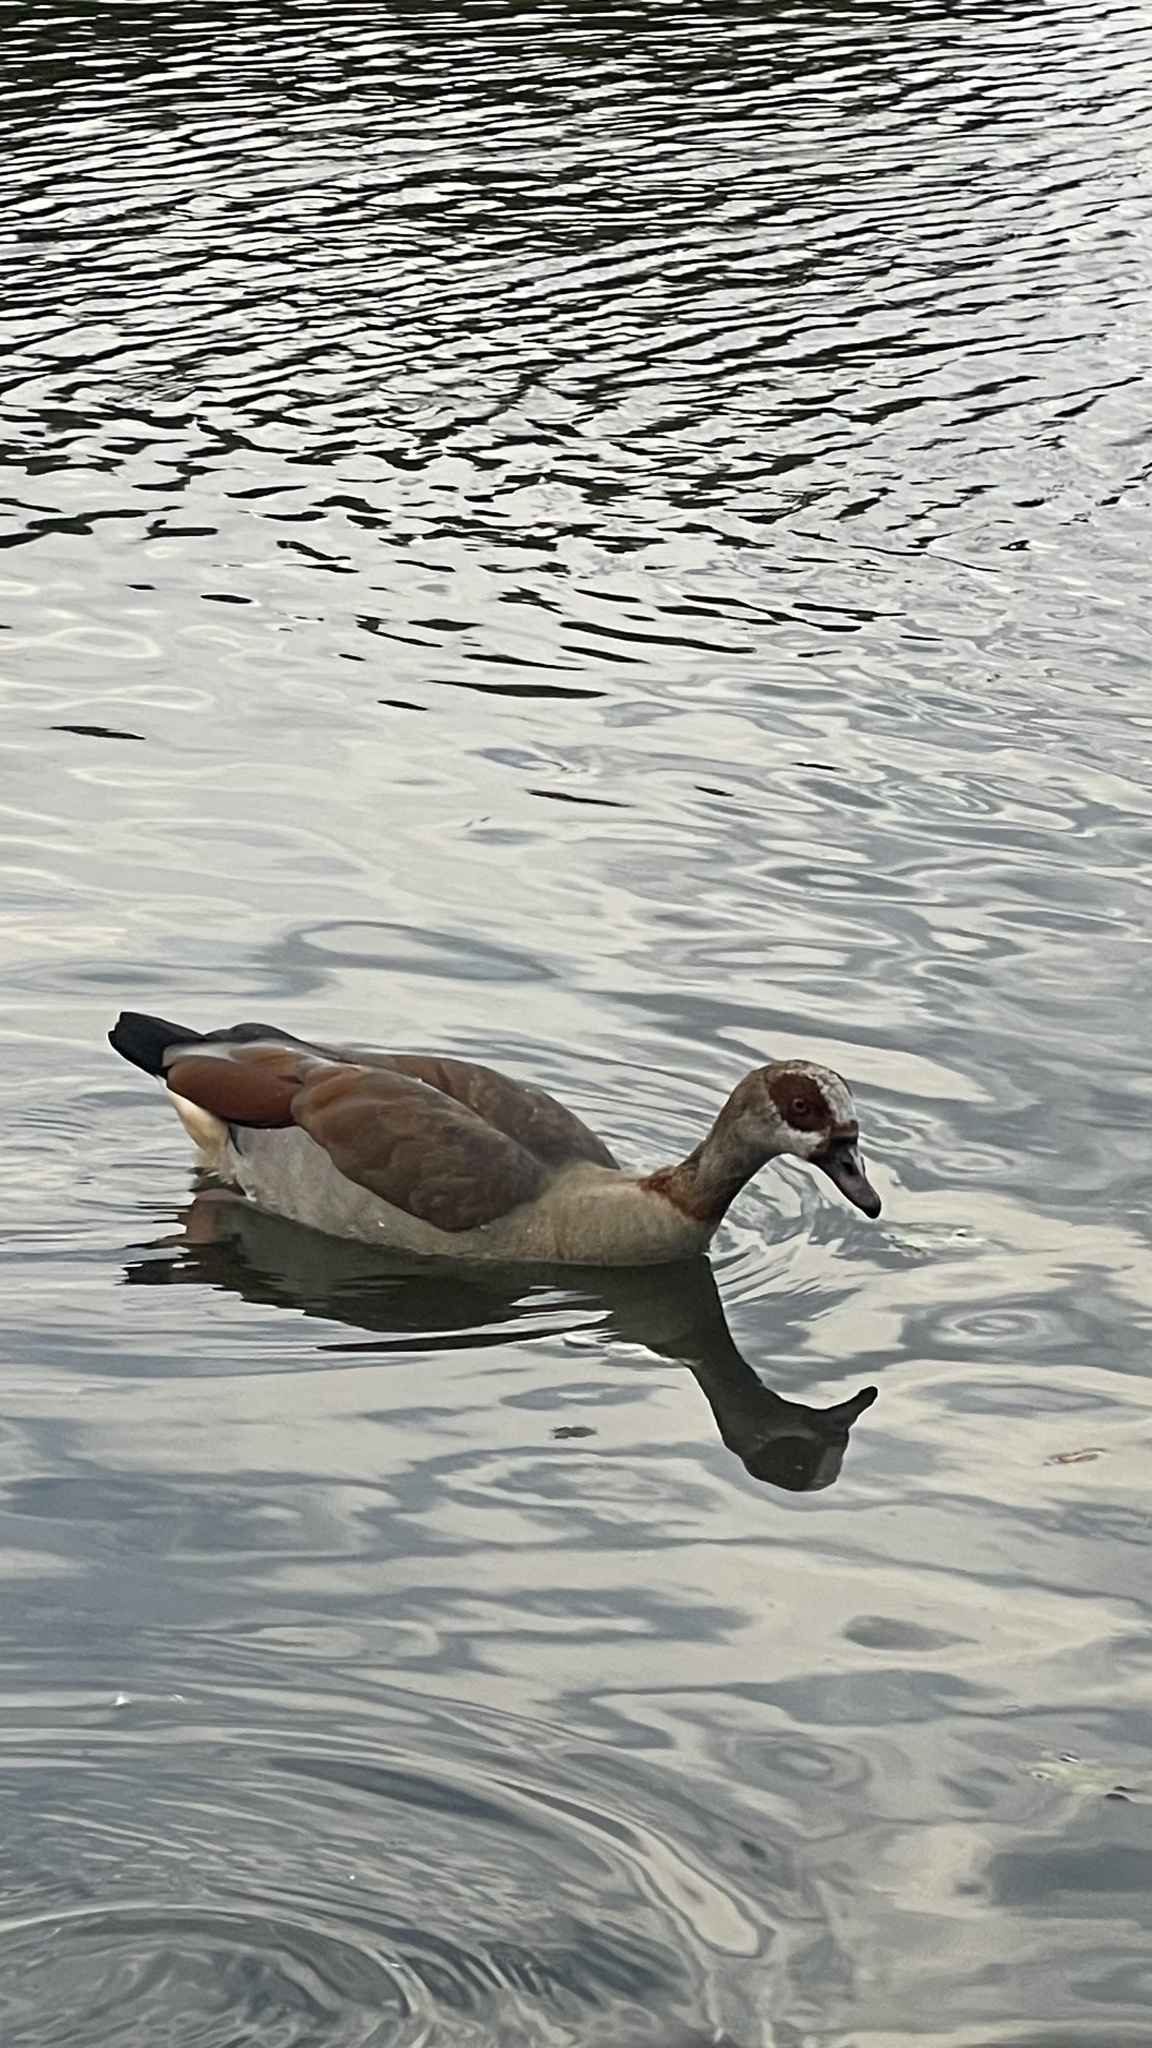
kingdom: Animalia
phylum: Chordata
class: Aves
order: Anseriformes
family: Anatidae
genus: Alopochen
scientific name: Alopochen aegyptiaca
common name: Egyptian goose
